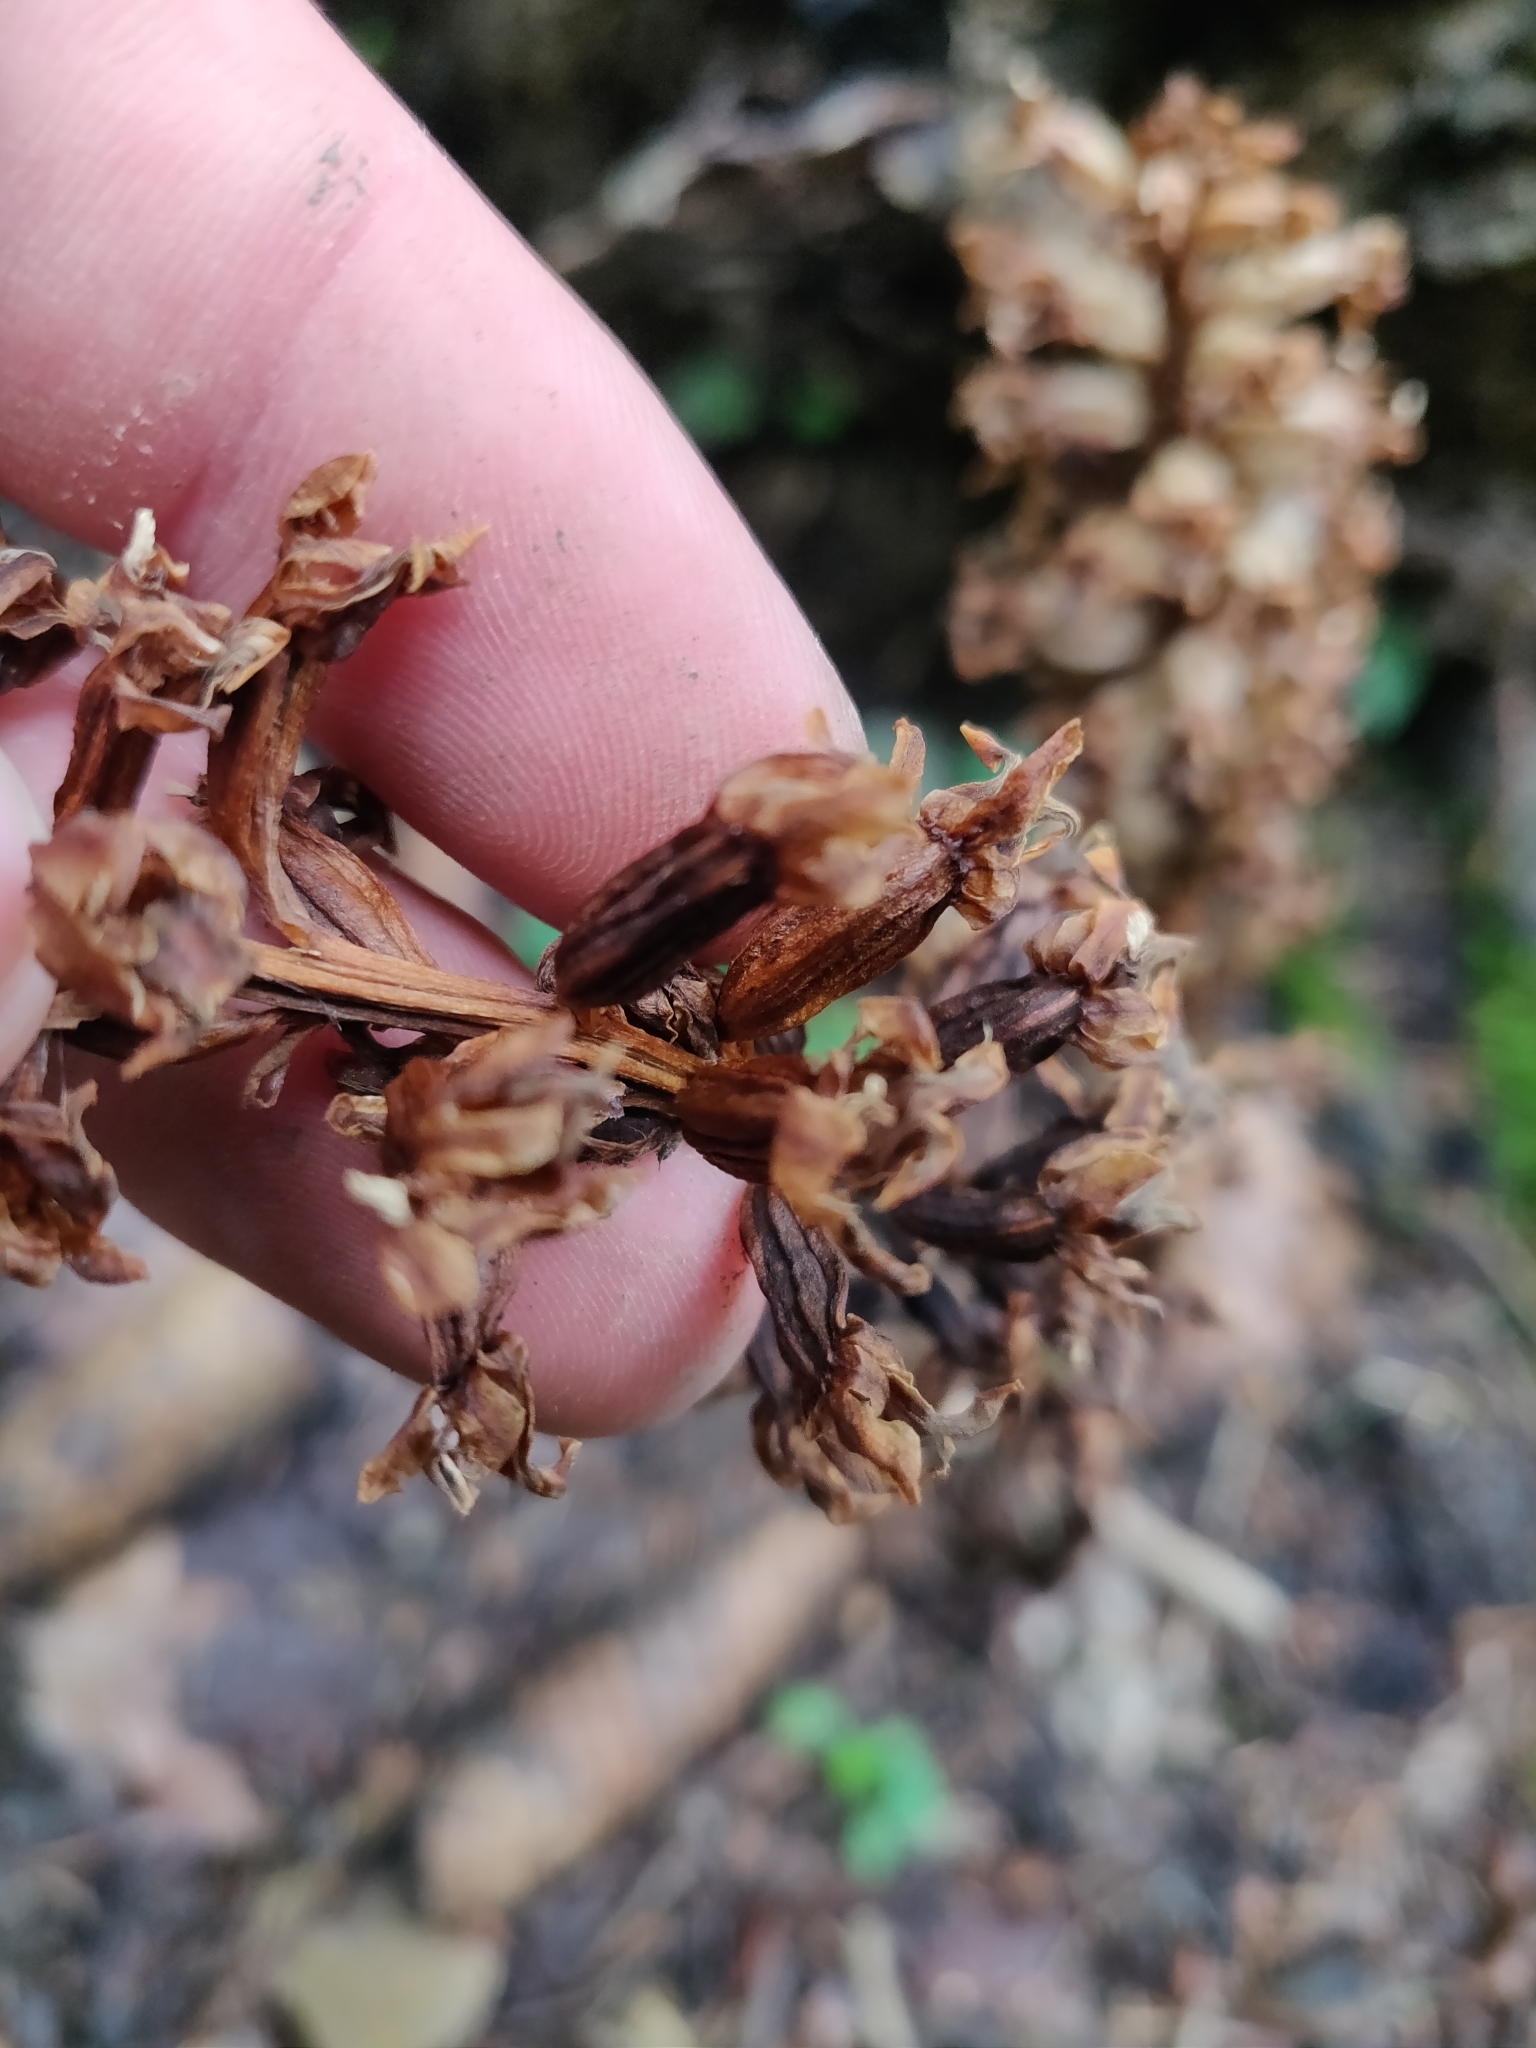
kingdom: Plantae
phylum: Tracheophyta
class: Liliopsida
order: Asparagales
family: Orchidaceae
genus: Neottia
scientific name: Neottia nidus-avis
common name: Bird's-nest orchid
